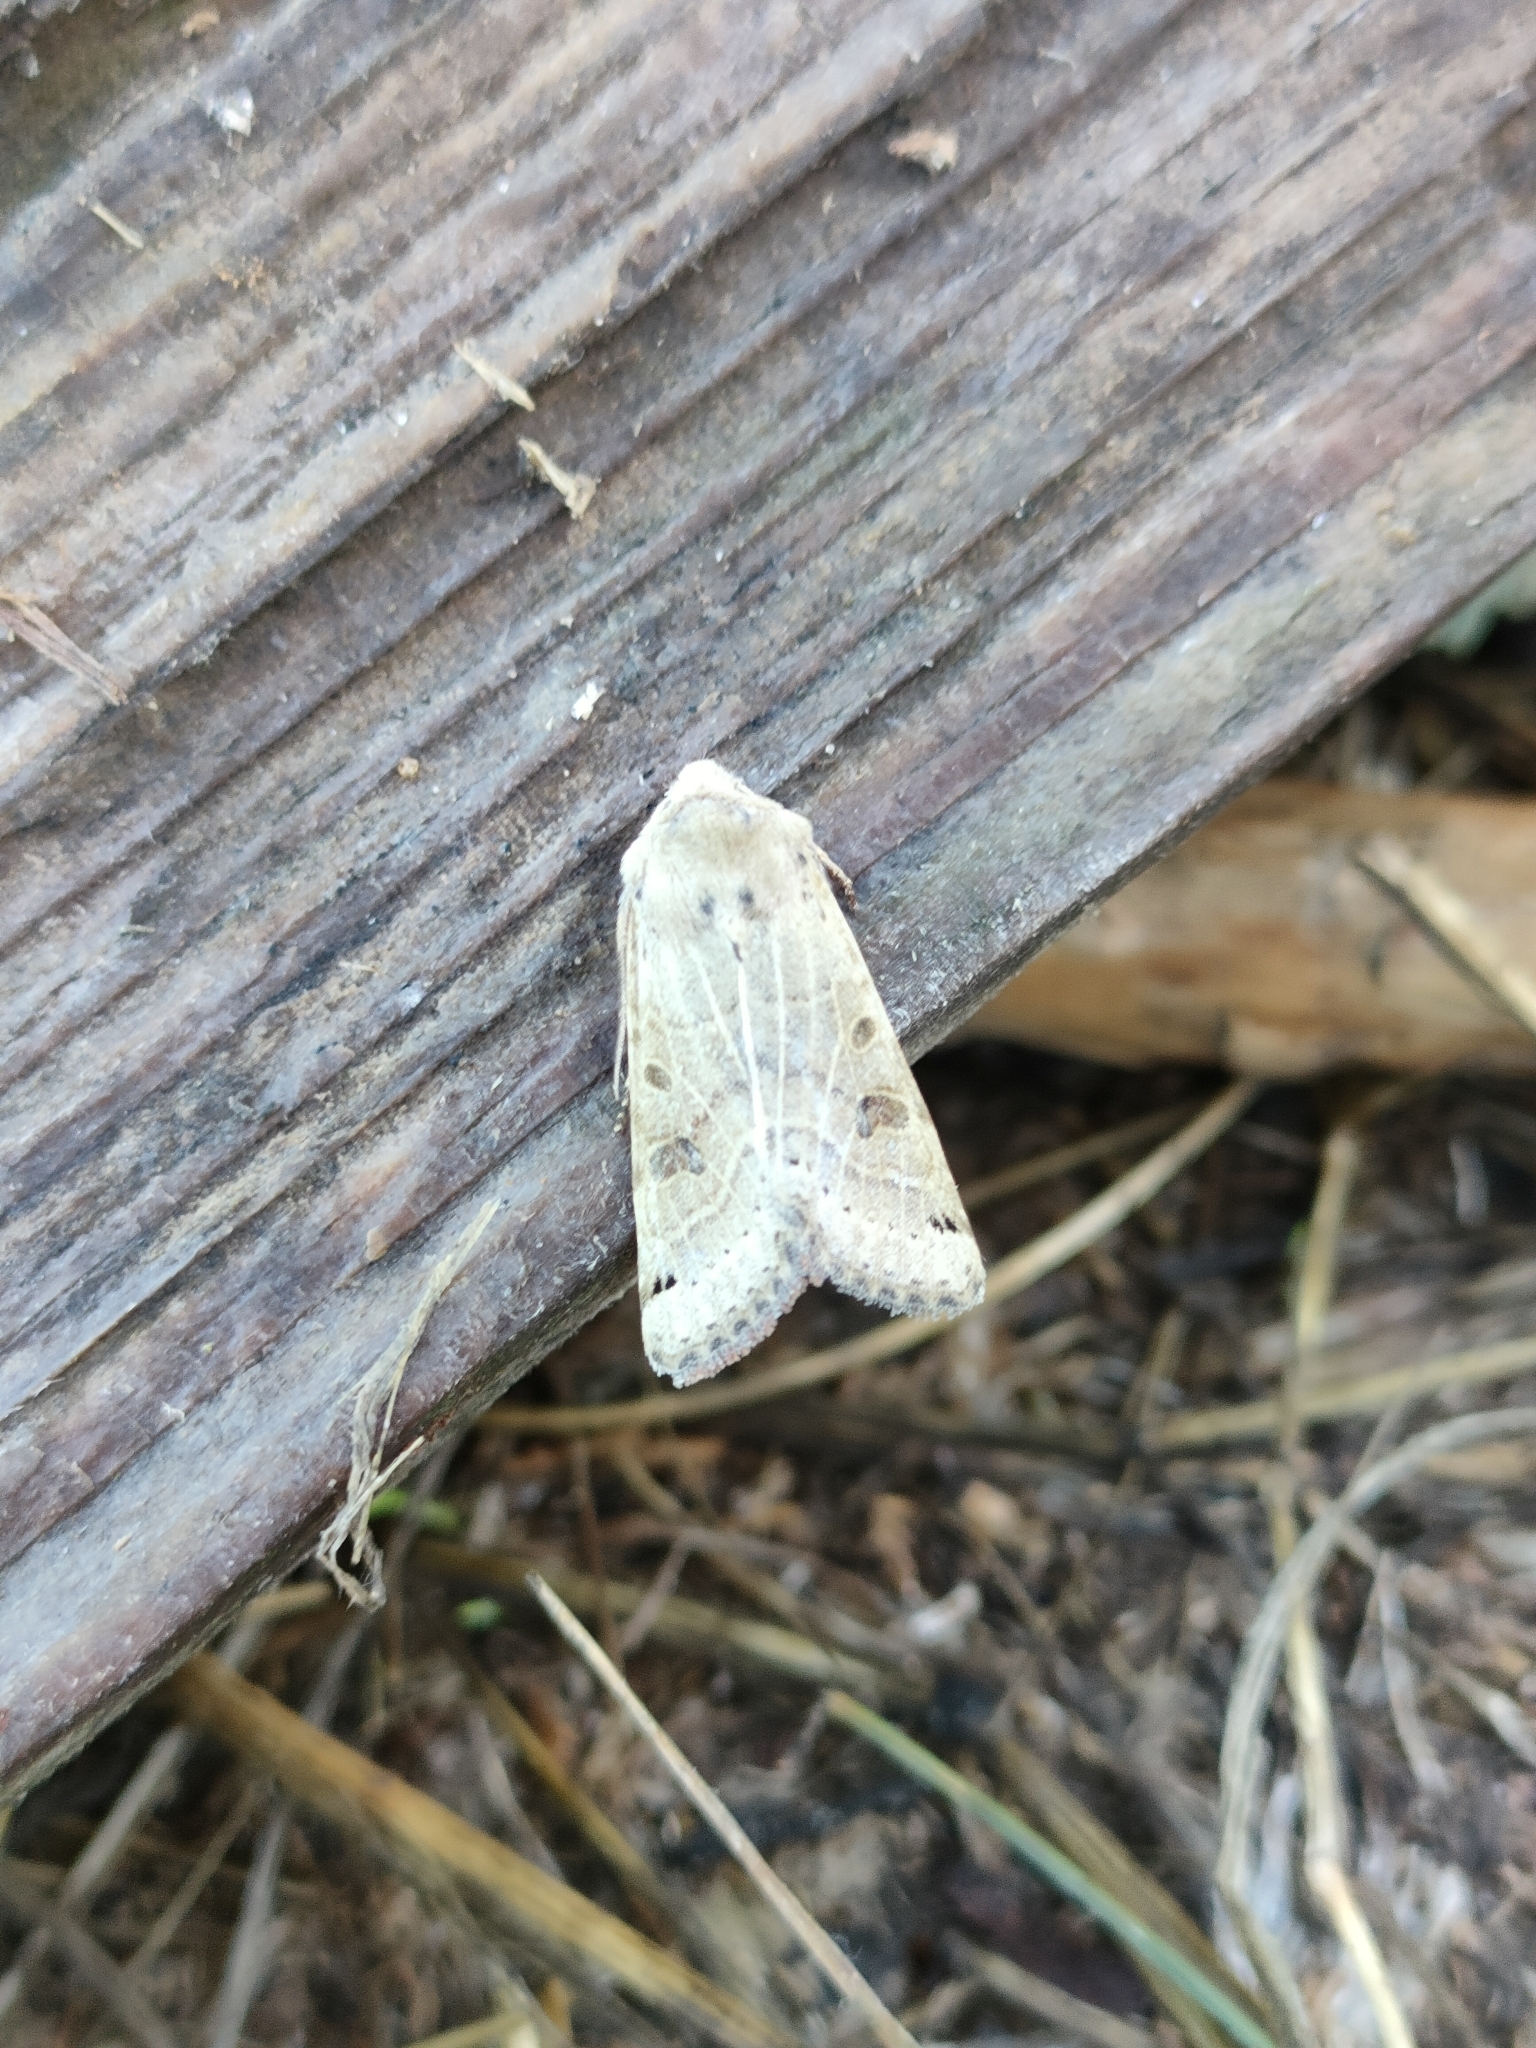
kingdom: Animalia
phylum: Arthropoda
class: Insecta
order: Lepidoptera
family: Noctuidae
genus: Agrochola
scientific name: Agrochola lunosa
